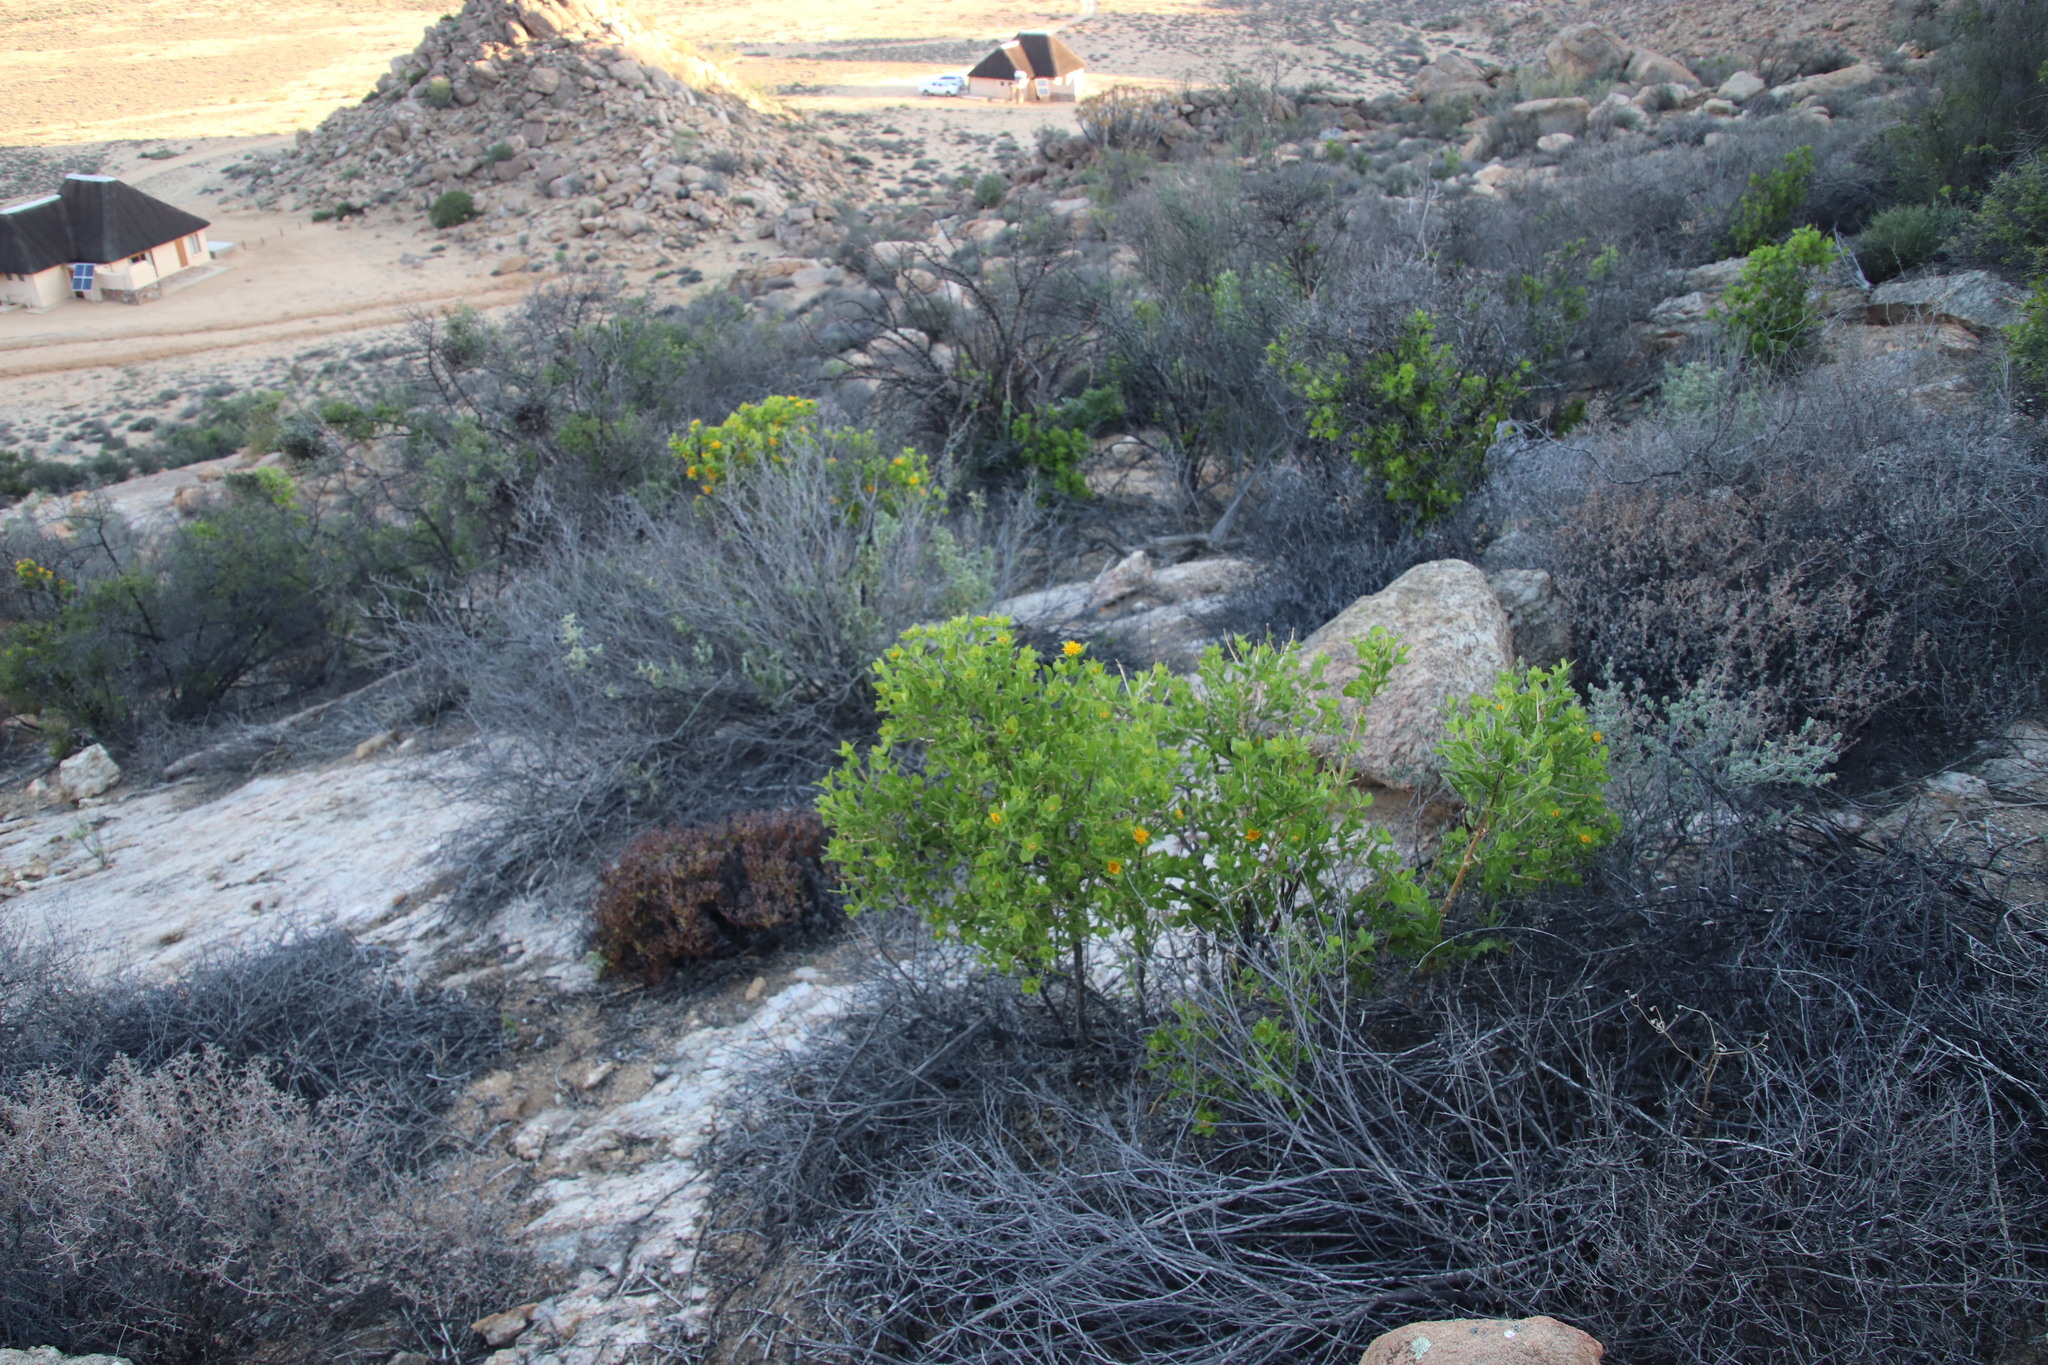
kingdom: Plantae
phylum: Tracheophyta
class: Magnoliopsida
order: Asterales
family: Asteraceae
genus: Didelta
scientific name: Didelta spinosa
